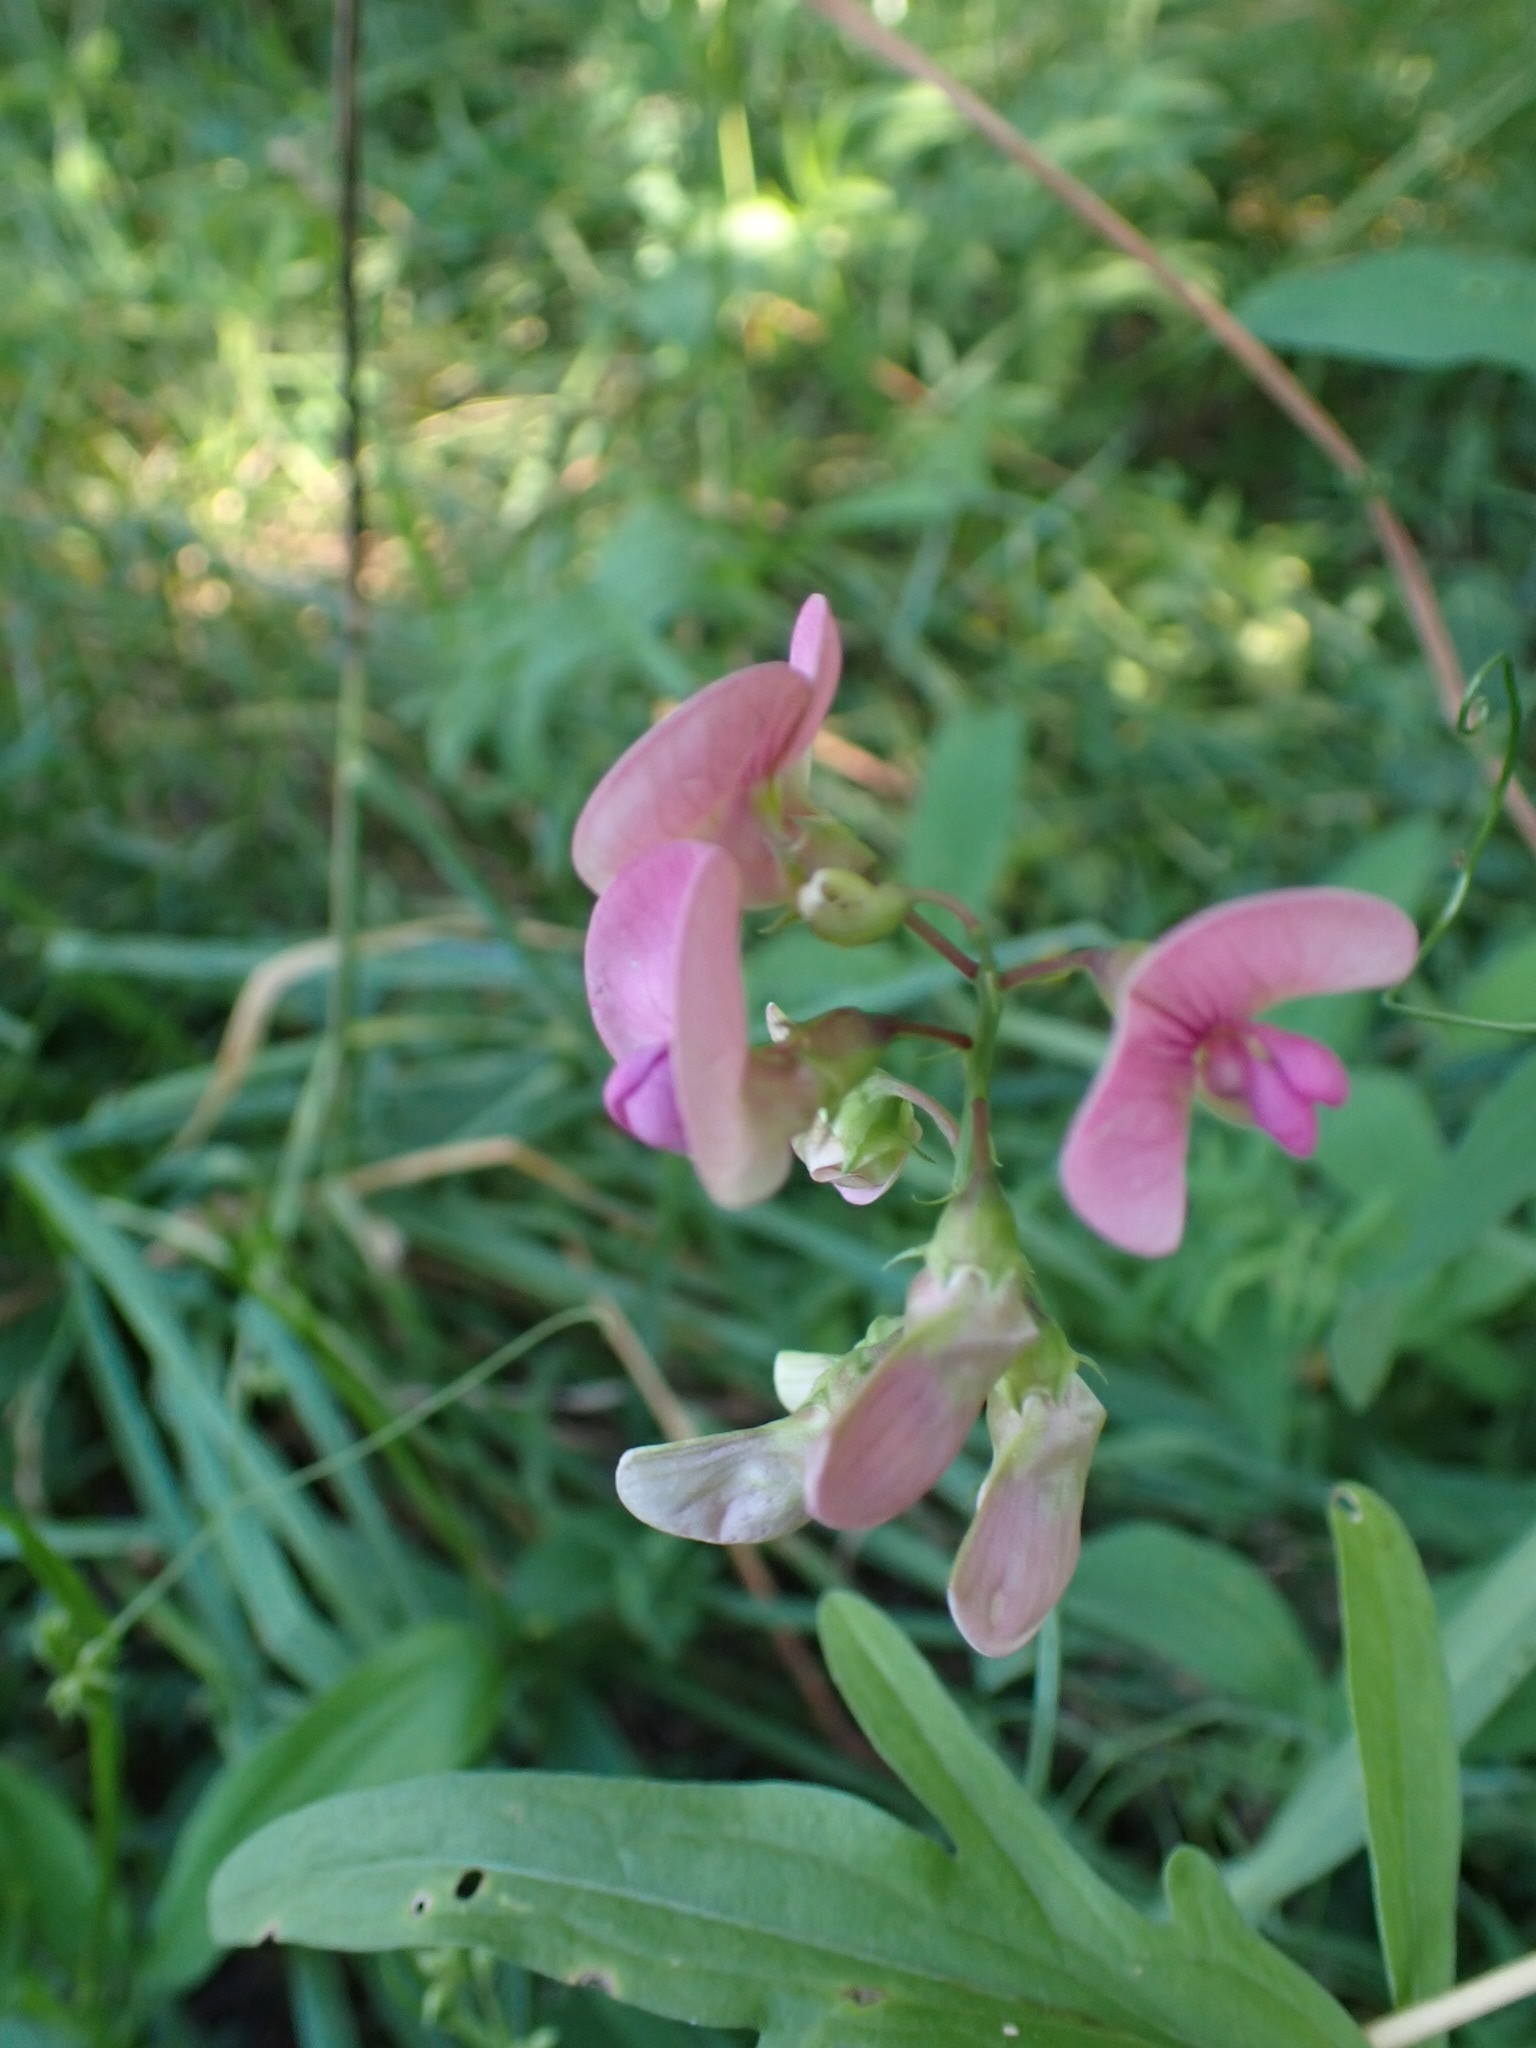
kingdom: Plantae
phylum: Tracheophyta
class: Magnoliopsida
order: Fabales
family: Fabaceae
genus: Lathyrus
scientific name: Lathyrus sylvestris
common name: Flat pea
